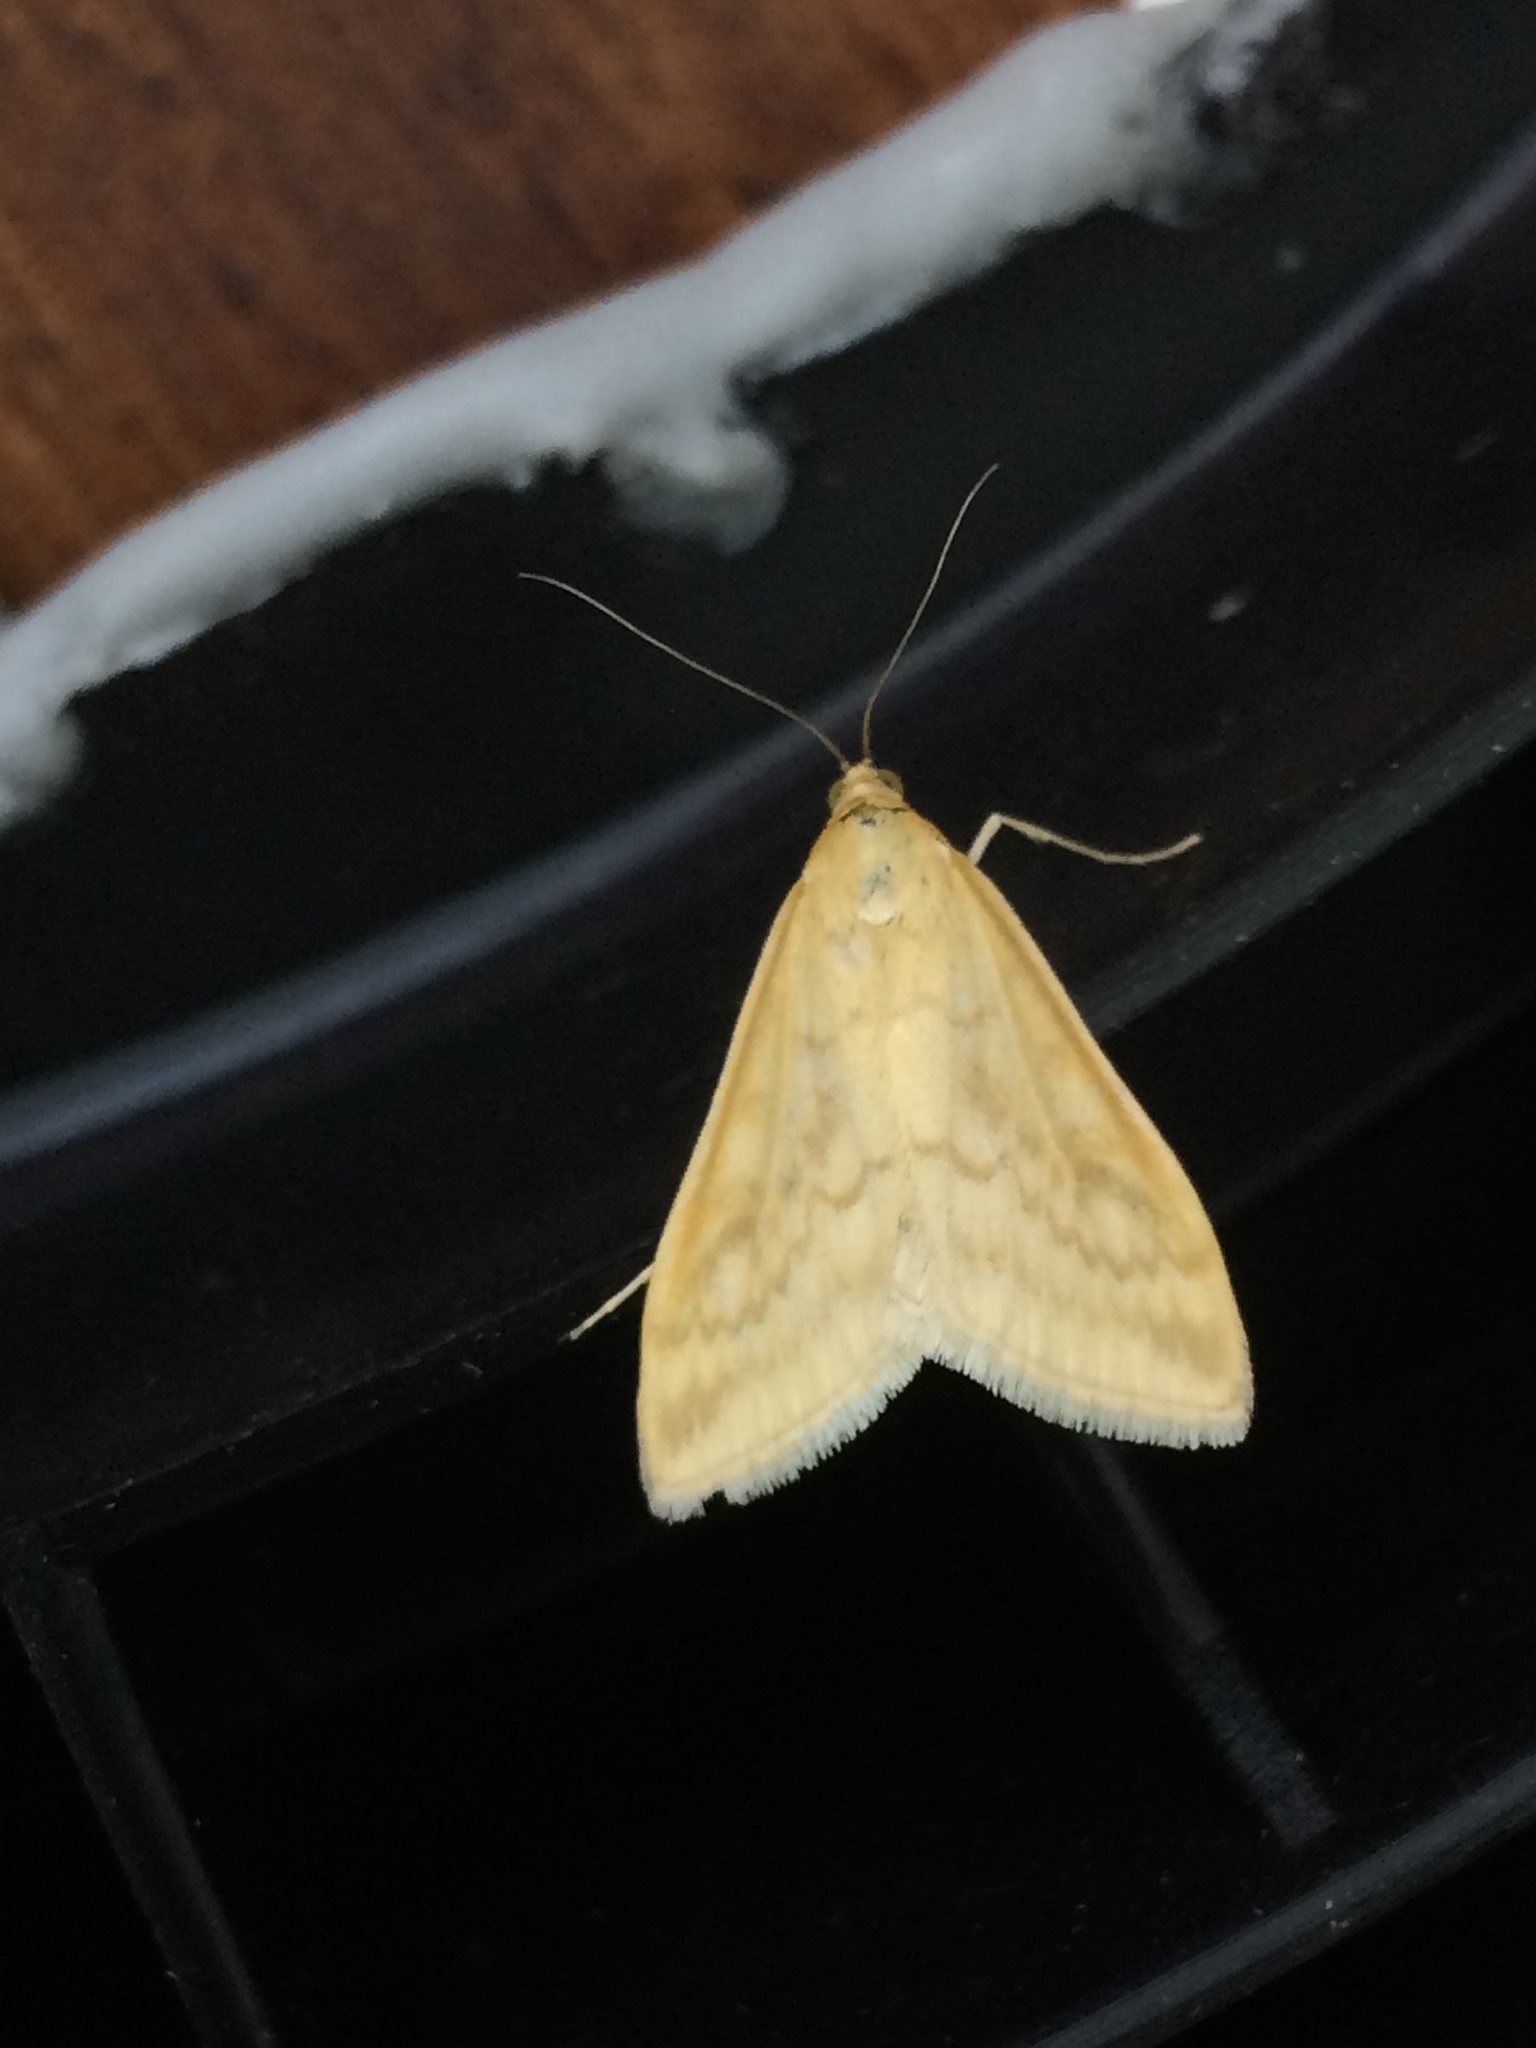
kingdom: Animalia
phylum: Arthropoda
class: Insecta
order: Lepidoptera
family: Crambidae
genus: Sitochroa
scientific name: Sitochroa verticalis
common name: Lesser pearl
